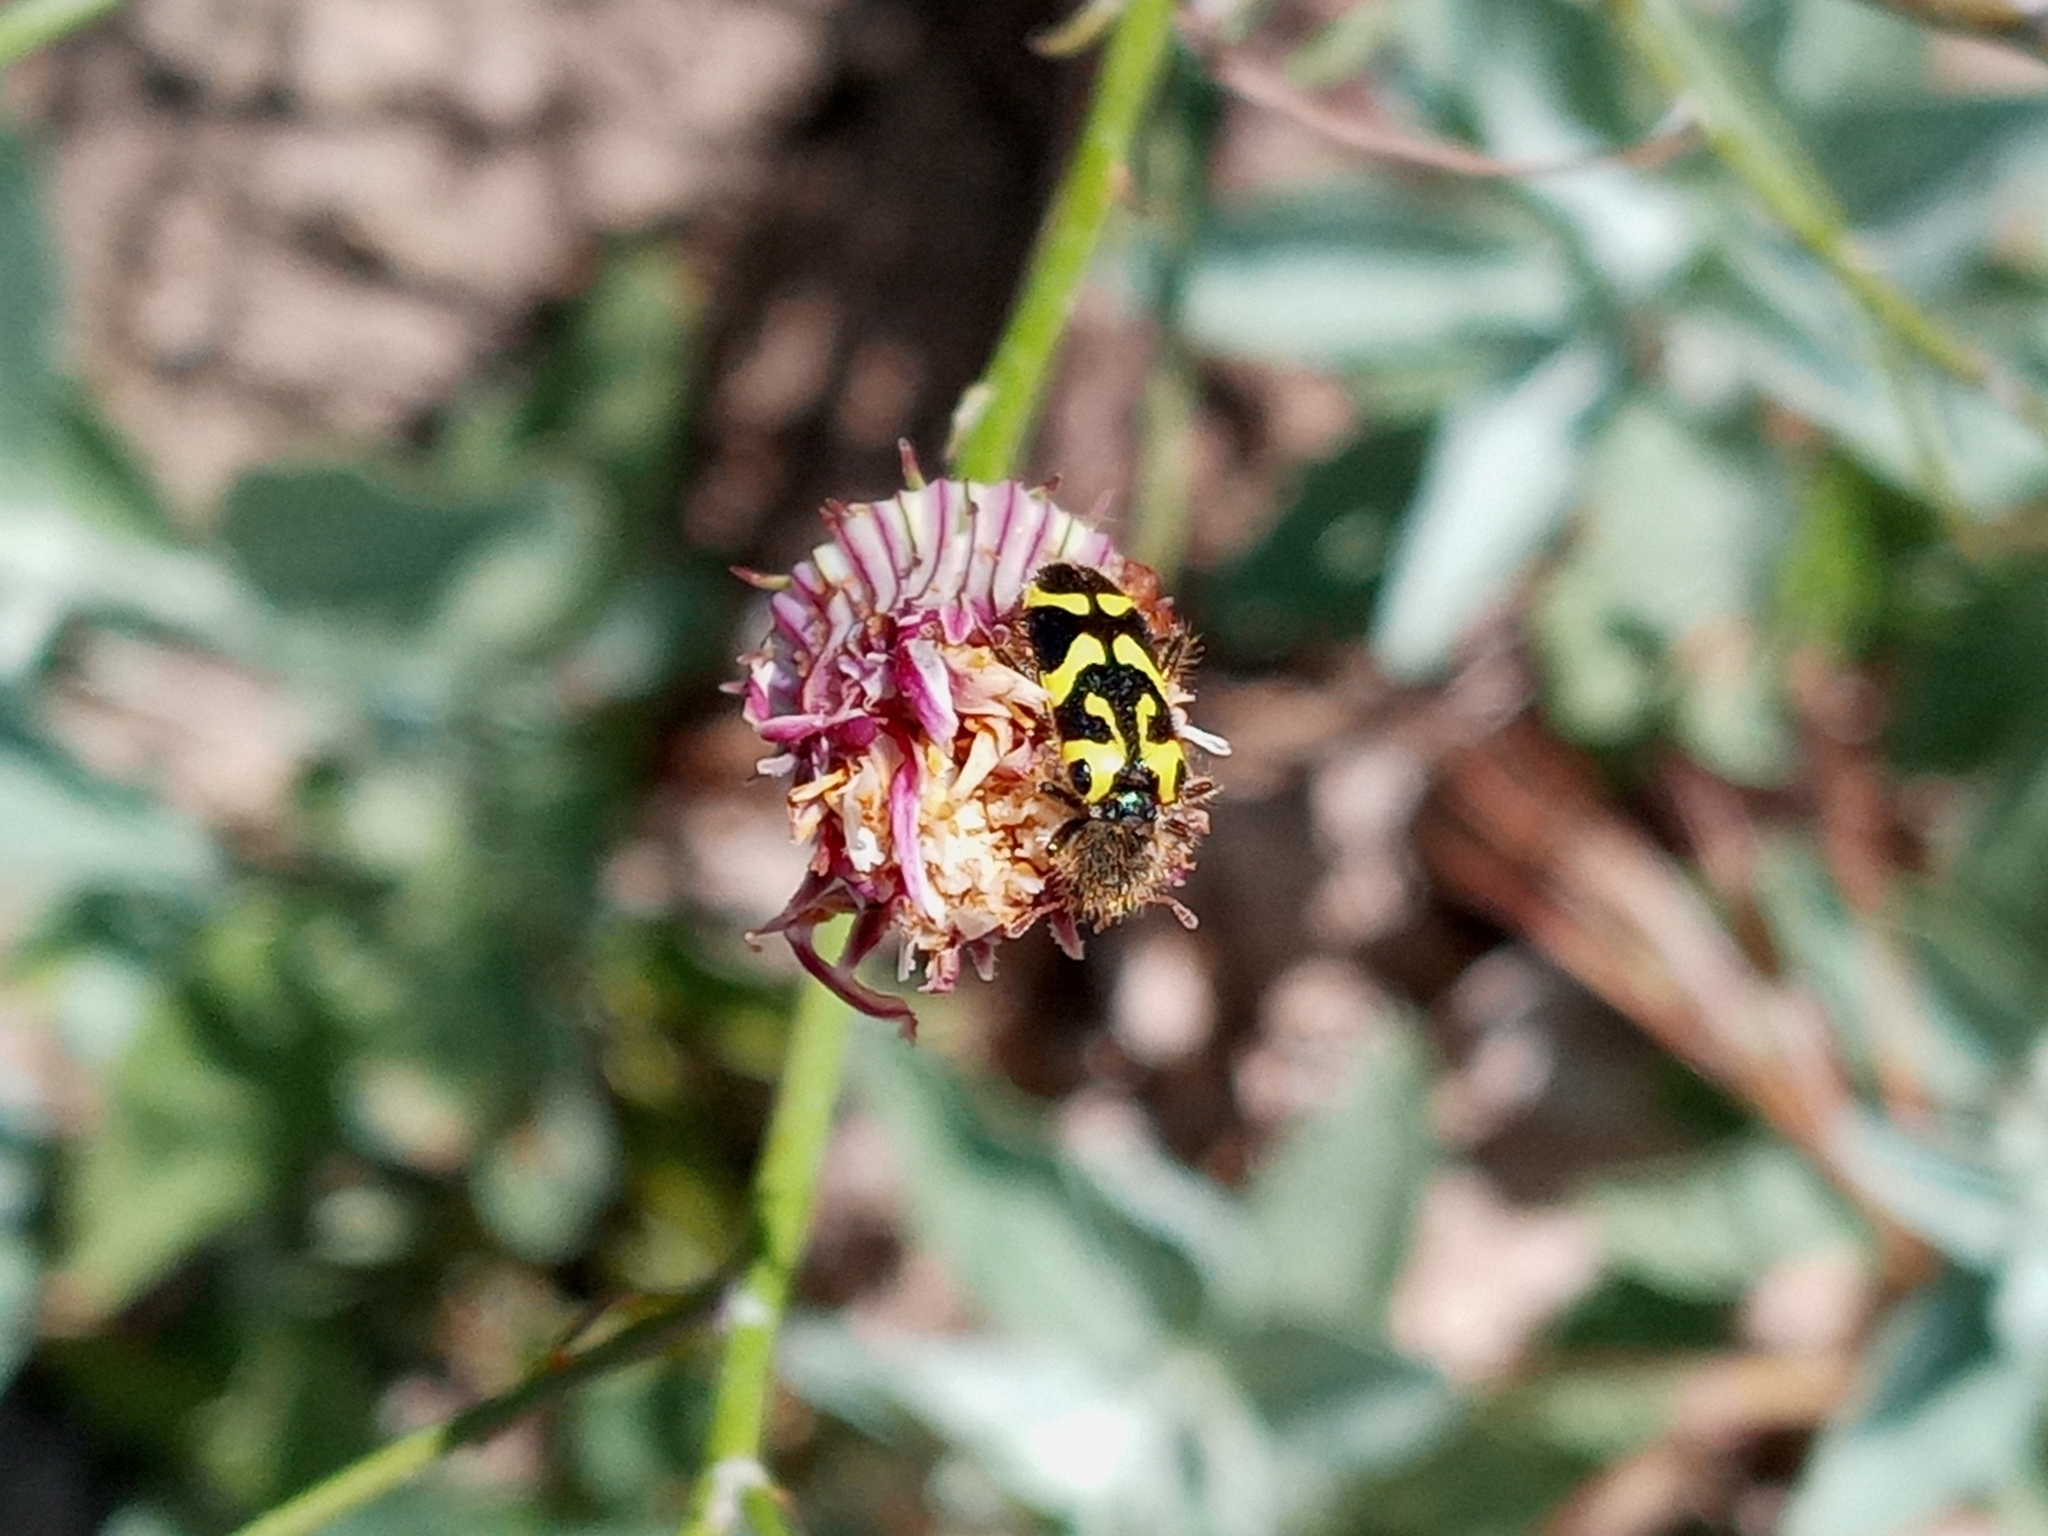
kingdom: Animalia
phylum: Arthropoda
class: Insecta
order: Coleoptera
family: Cleridae
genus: Trichodes
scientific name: Trichodes ornatus
